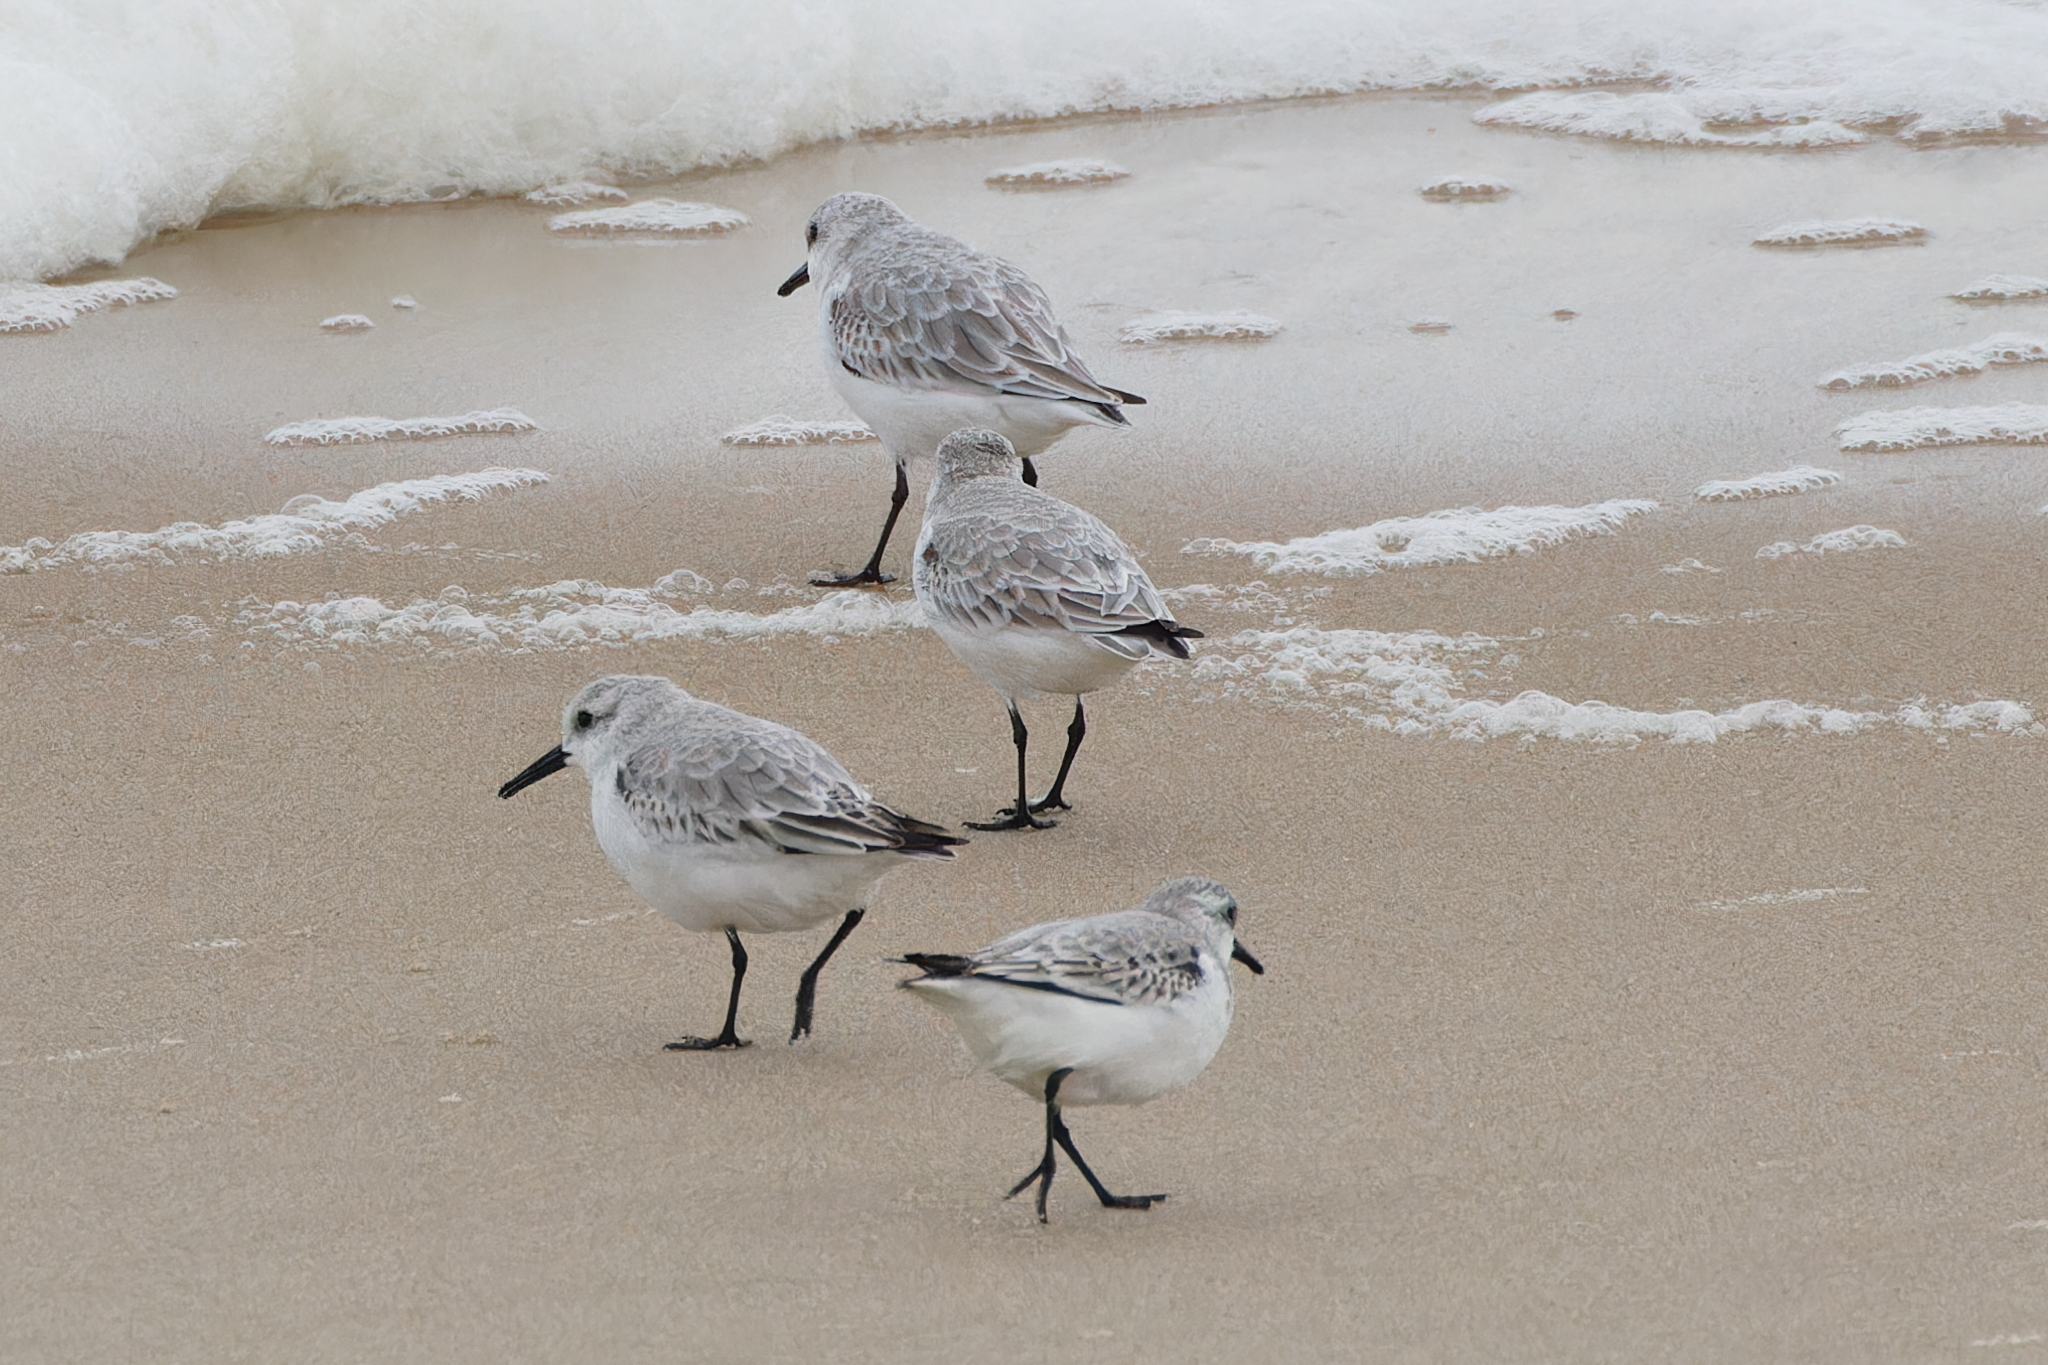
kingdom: Animalia
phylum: Chordata
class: Aves
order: Charadriiformes
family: Scolopacidae
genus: Calidris
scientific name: Calidris alba
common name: Sanderling
